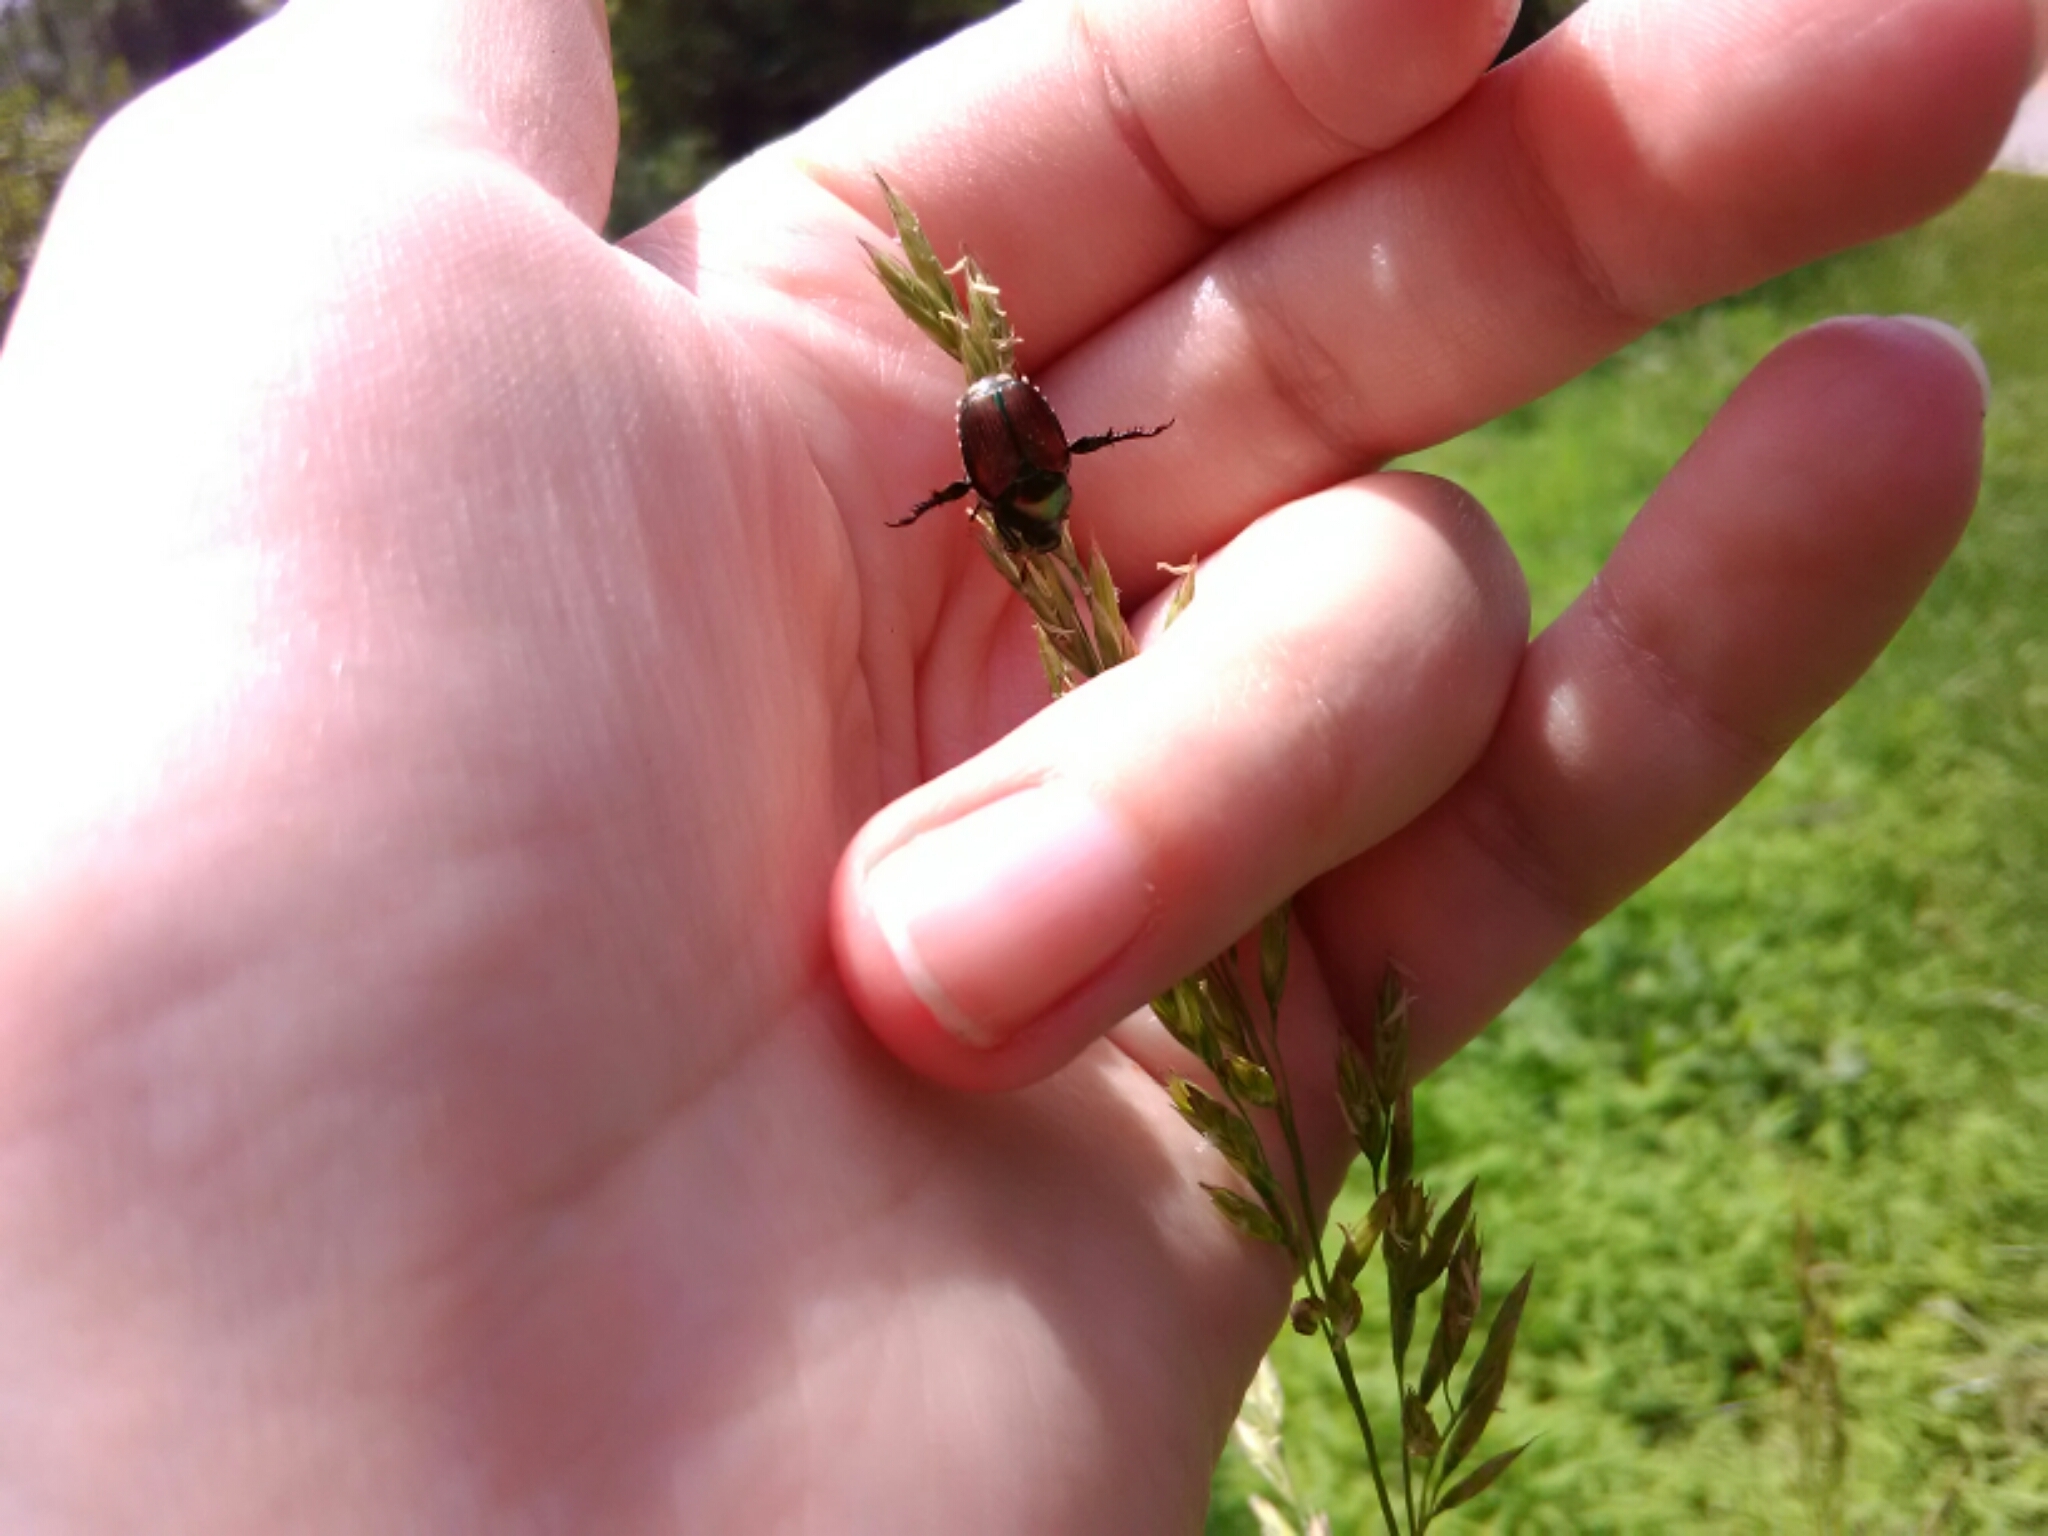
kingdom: Animalia
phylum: Arthropoda
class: Insecta
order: Coleoptera
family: Scarabaeidae
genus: Popillia
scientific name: Popillia japonica
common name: Japanese beetle
